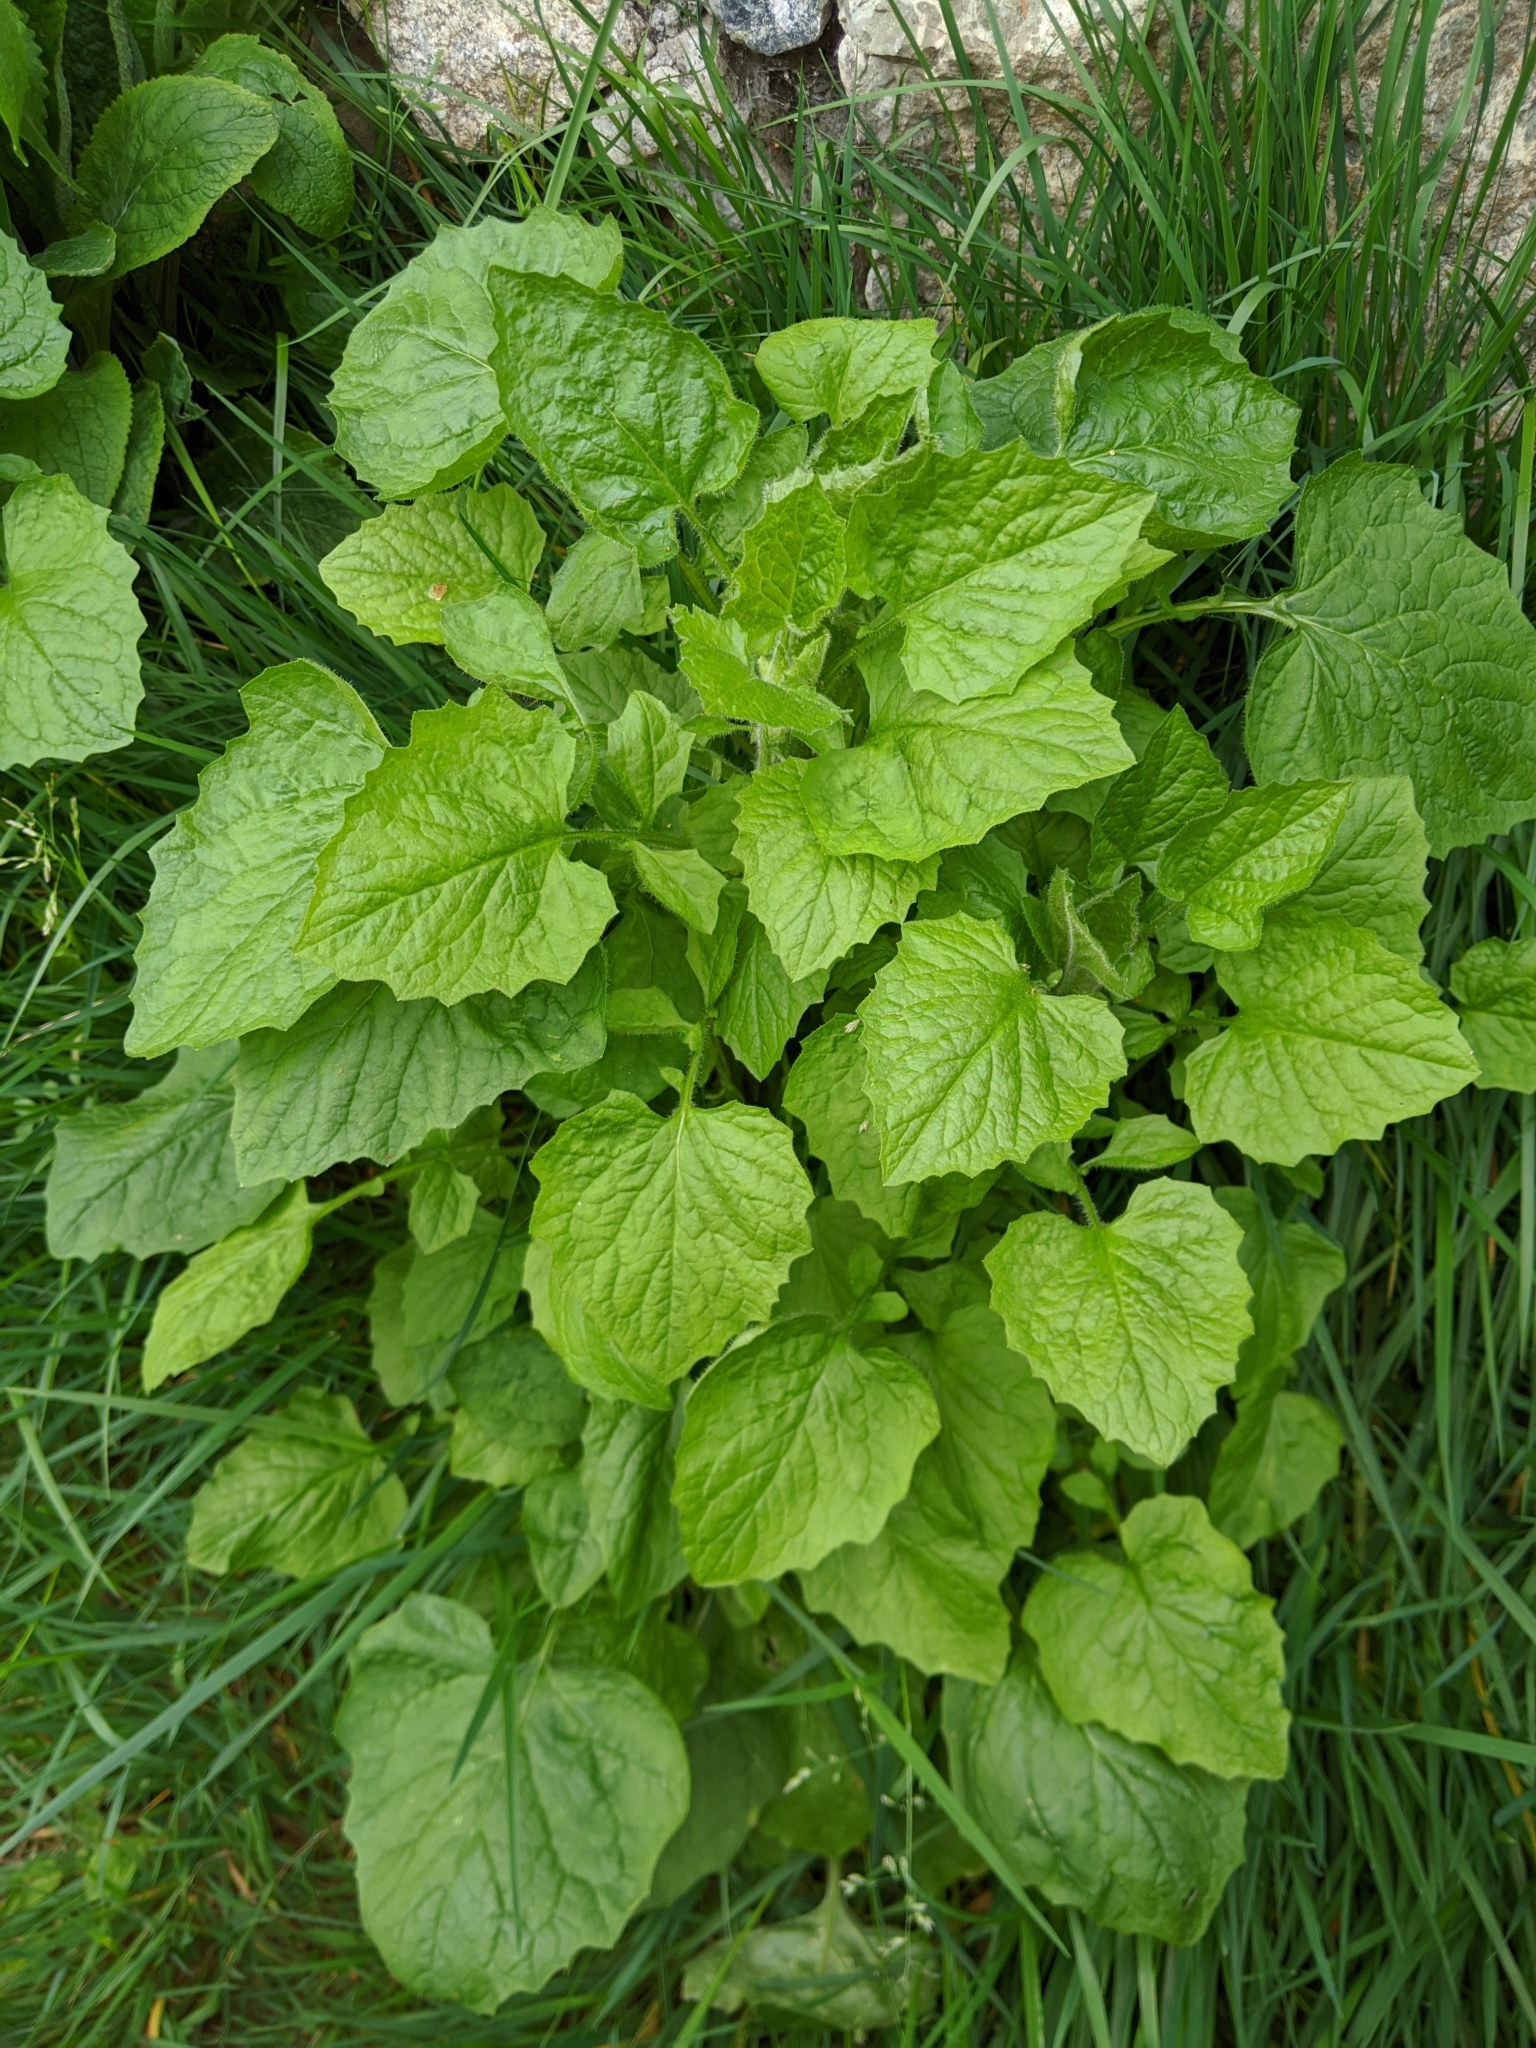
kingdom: Plantae
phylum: Tracheophyta
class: Magnoliopsida
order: Asterales
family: Asteraceae
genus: Lapsana
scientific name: Lapsana communis
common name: Nipplewort
